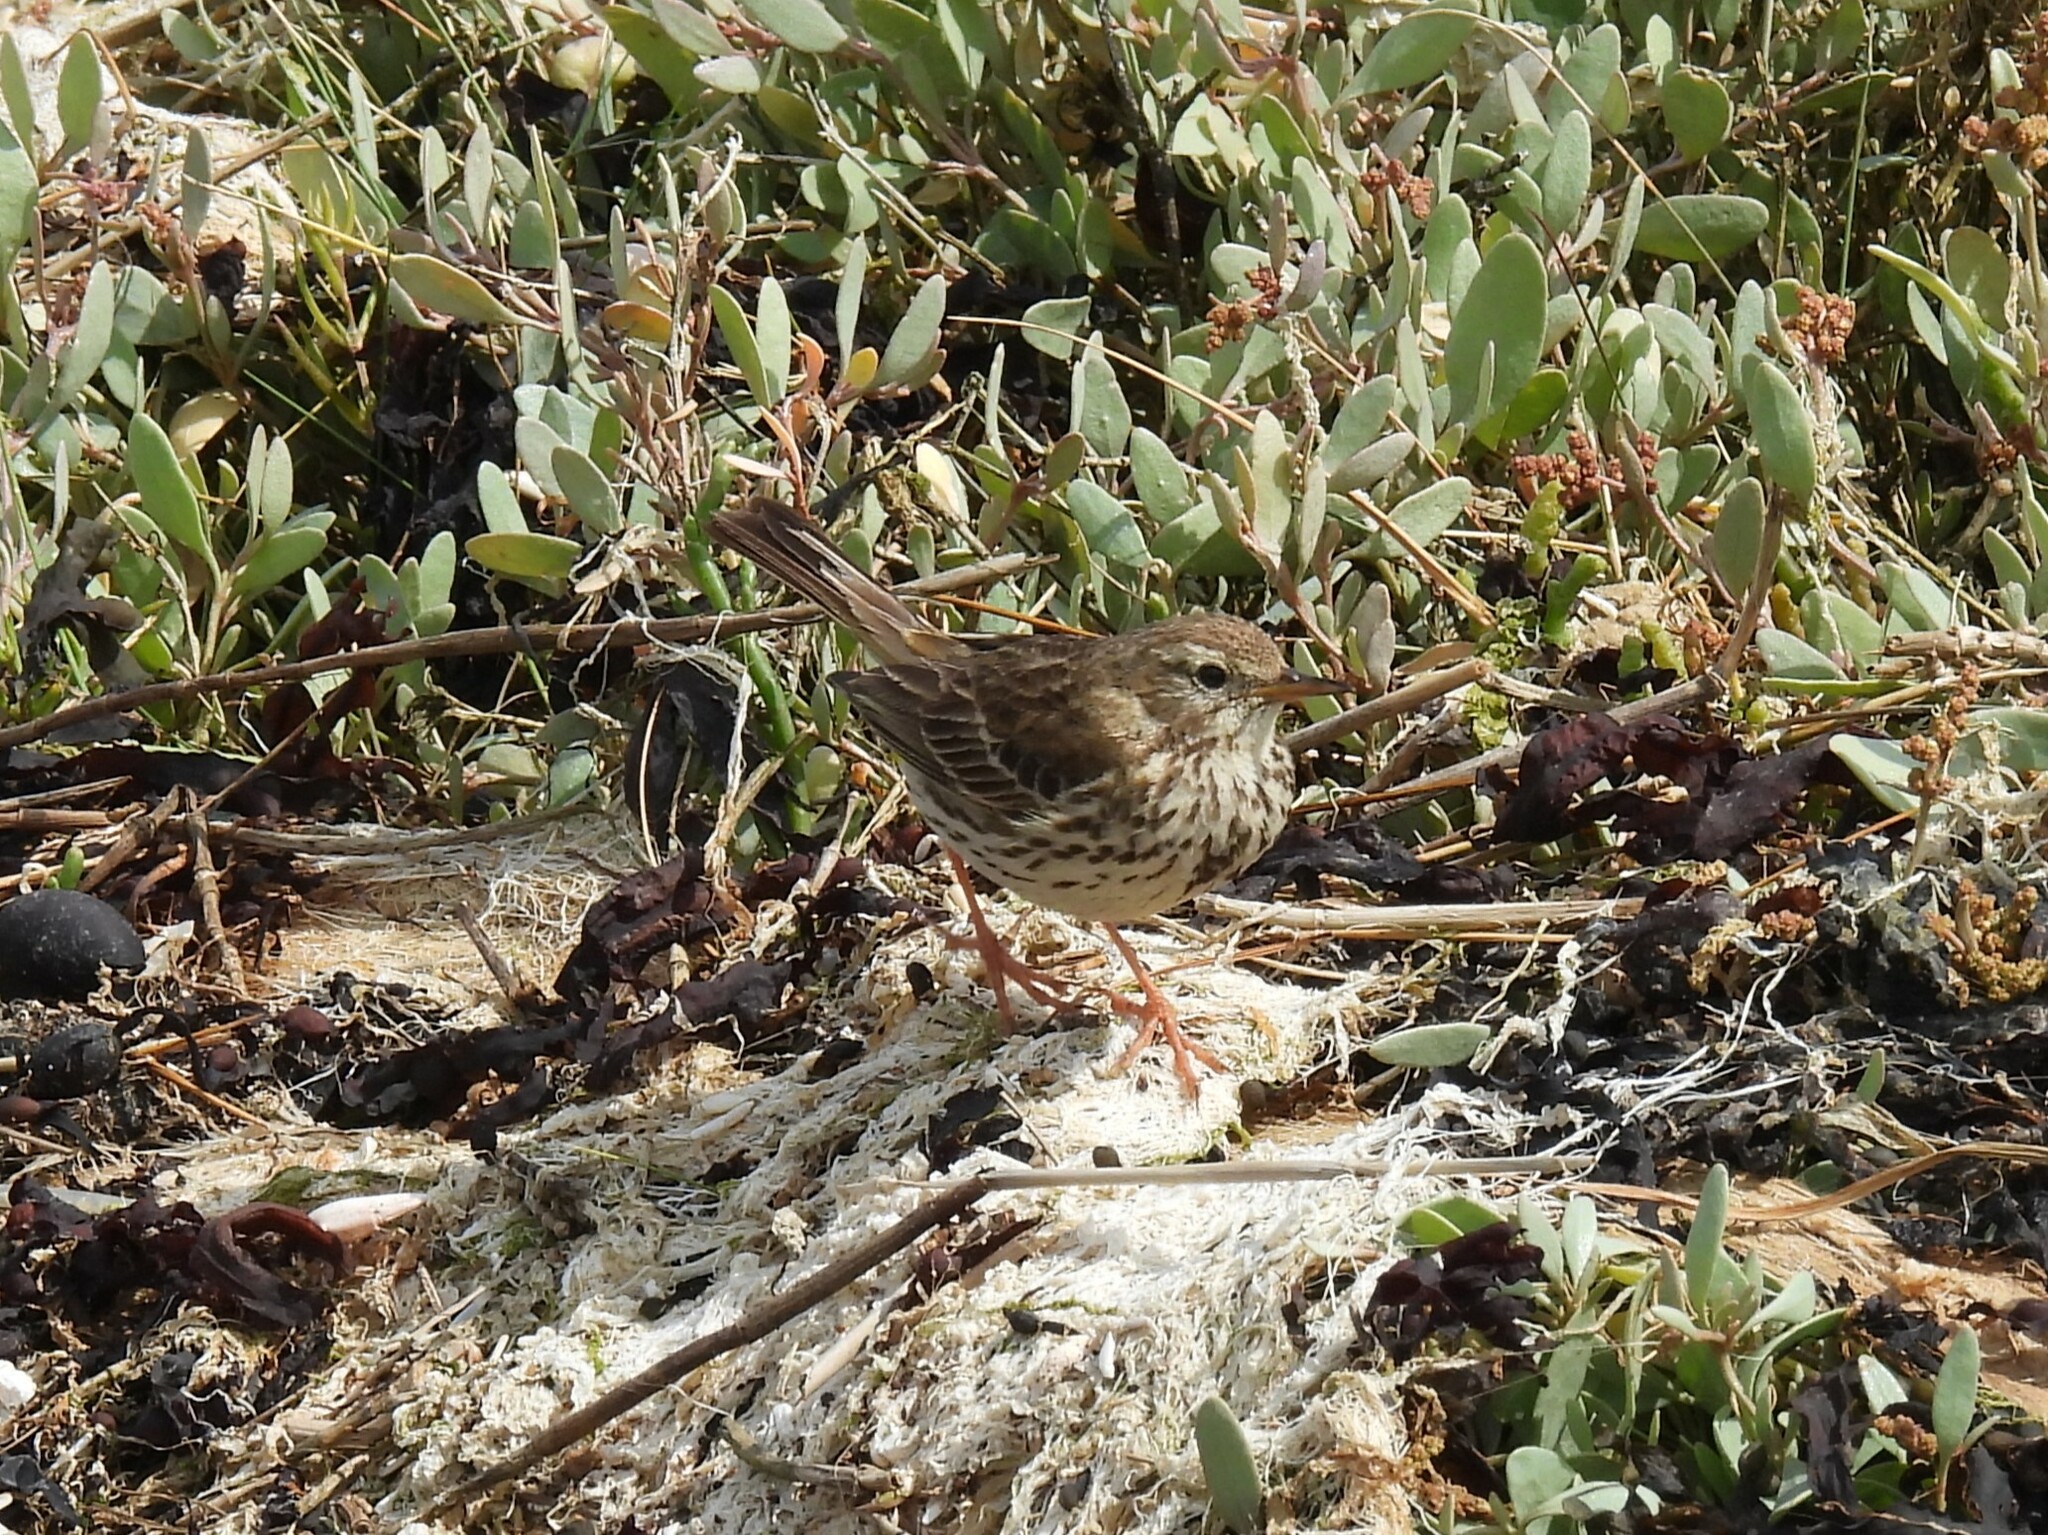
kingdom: Animalia
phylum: Chordata
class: Aves
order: Passeriformes
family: Motacillidae
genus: Anthus
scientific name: Anthus pratensis
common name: Meadow pipit
